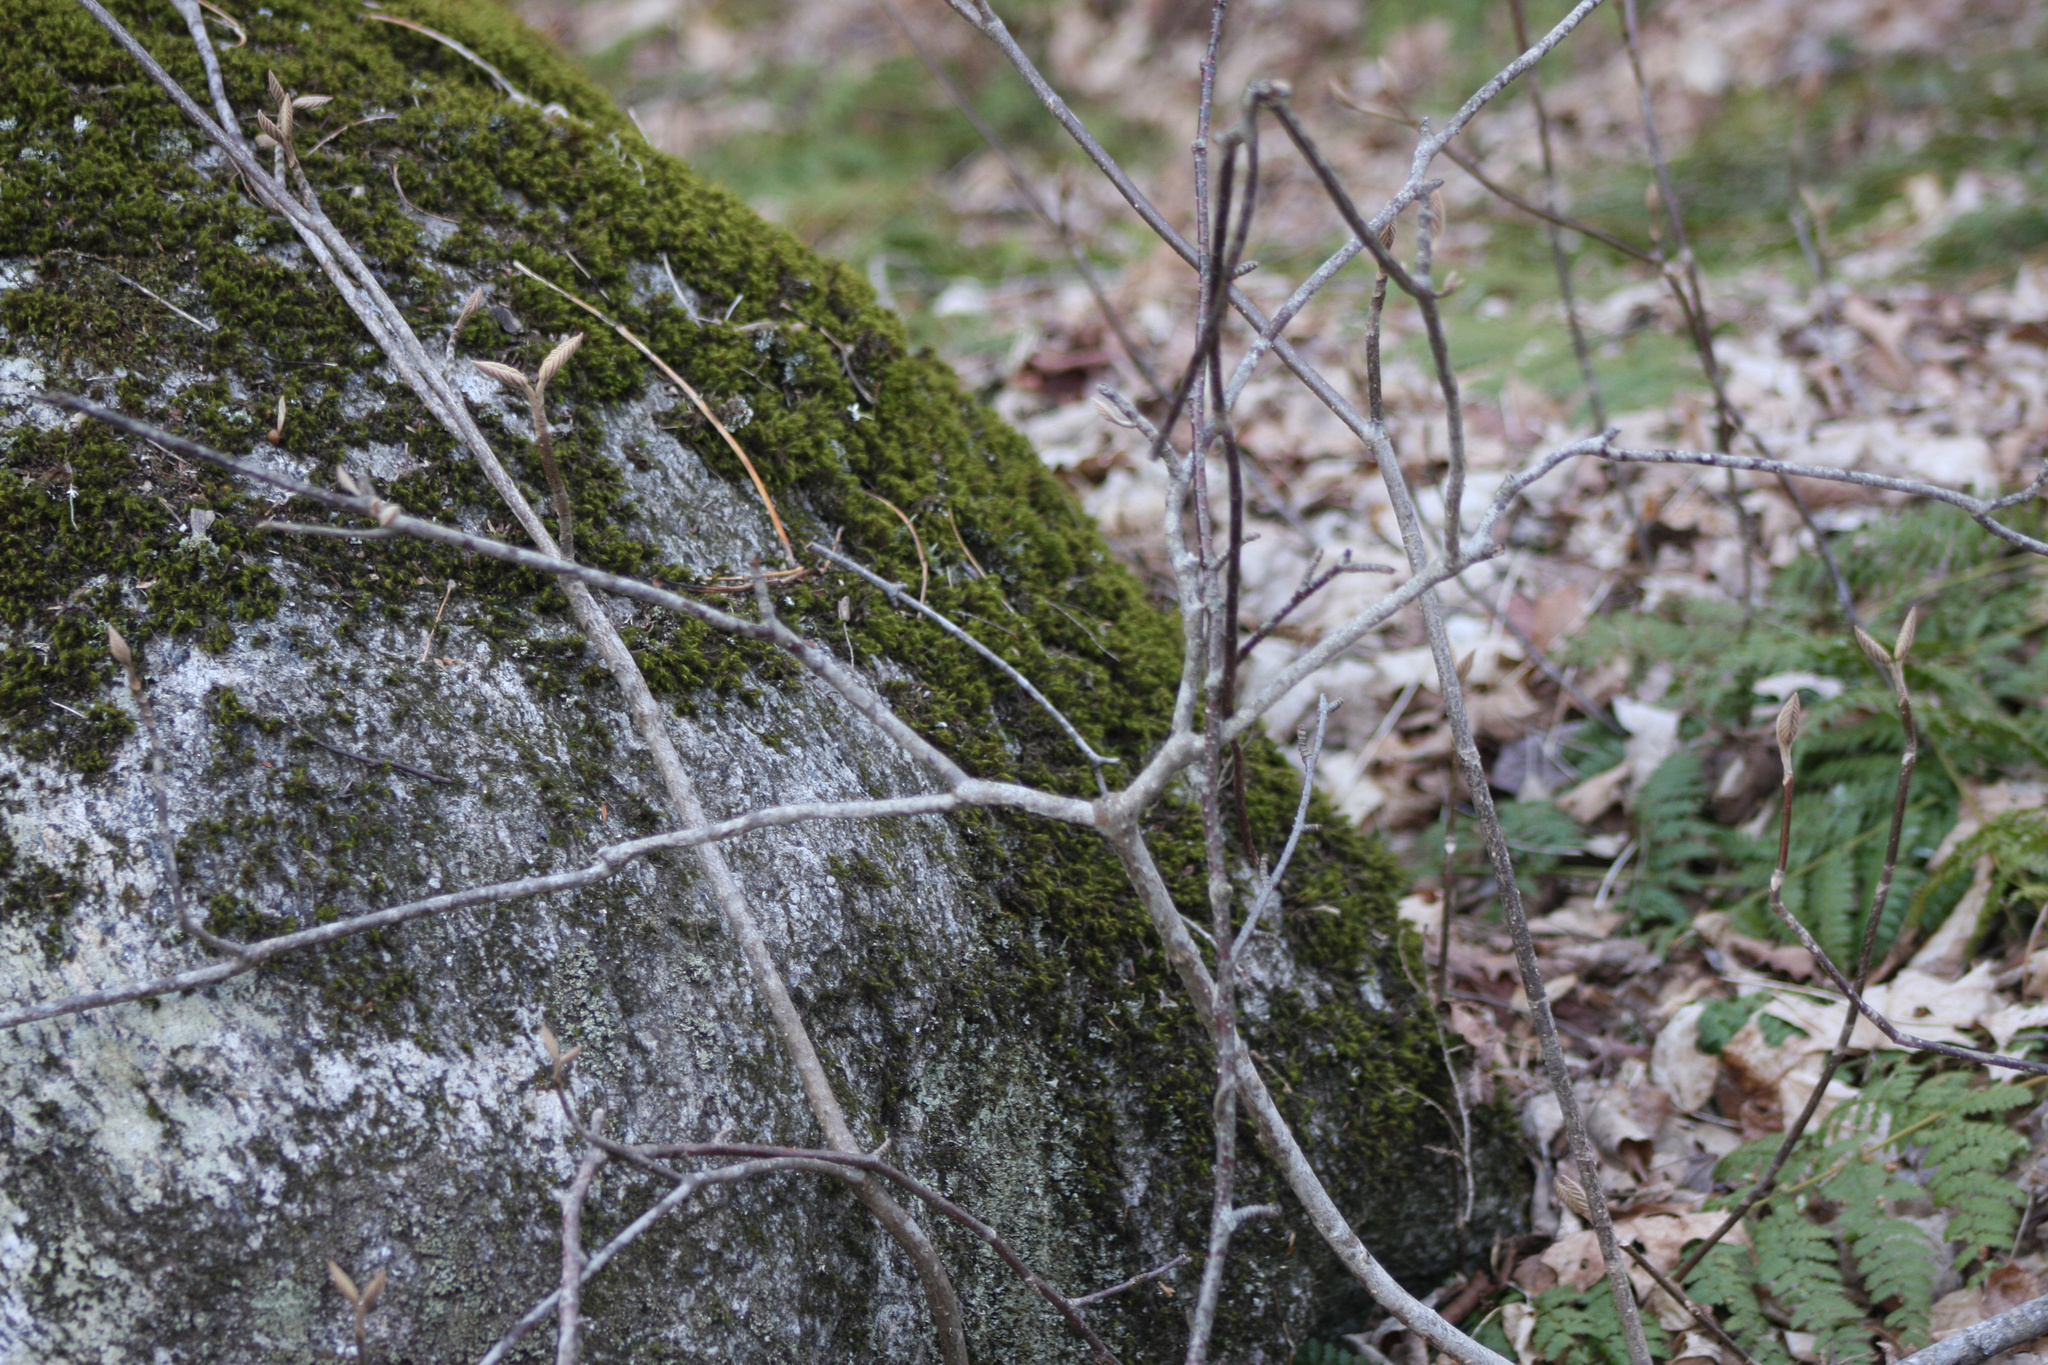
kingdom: Plantae
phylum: Tracheophyta
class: Magnoliopsida
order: Dipsacales
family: Viburnaceae
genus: Viburnum
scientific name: Viburnum lantanoides
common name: Hobblebush
